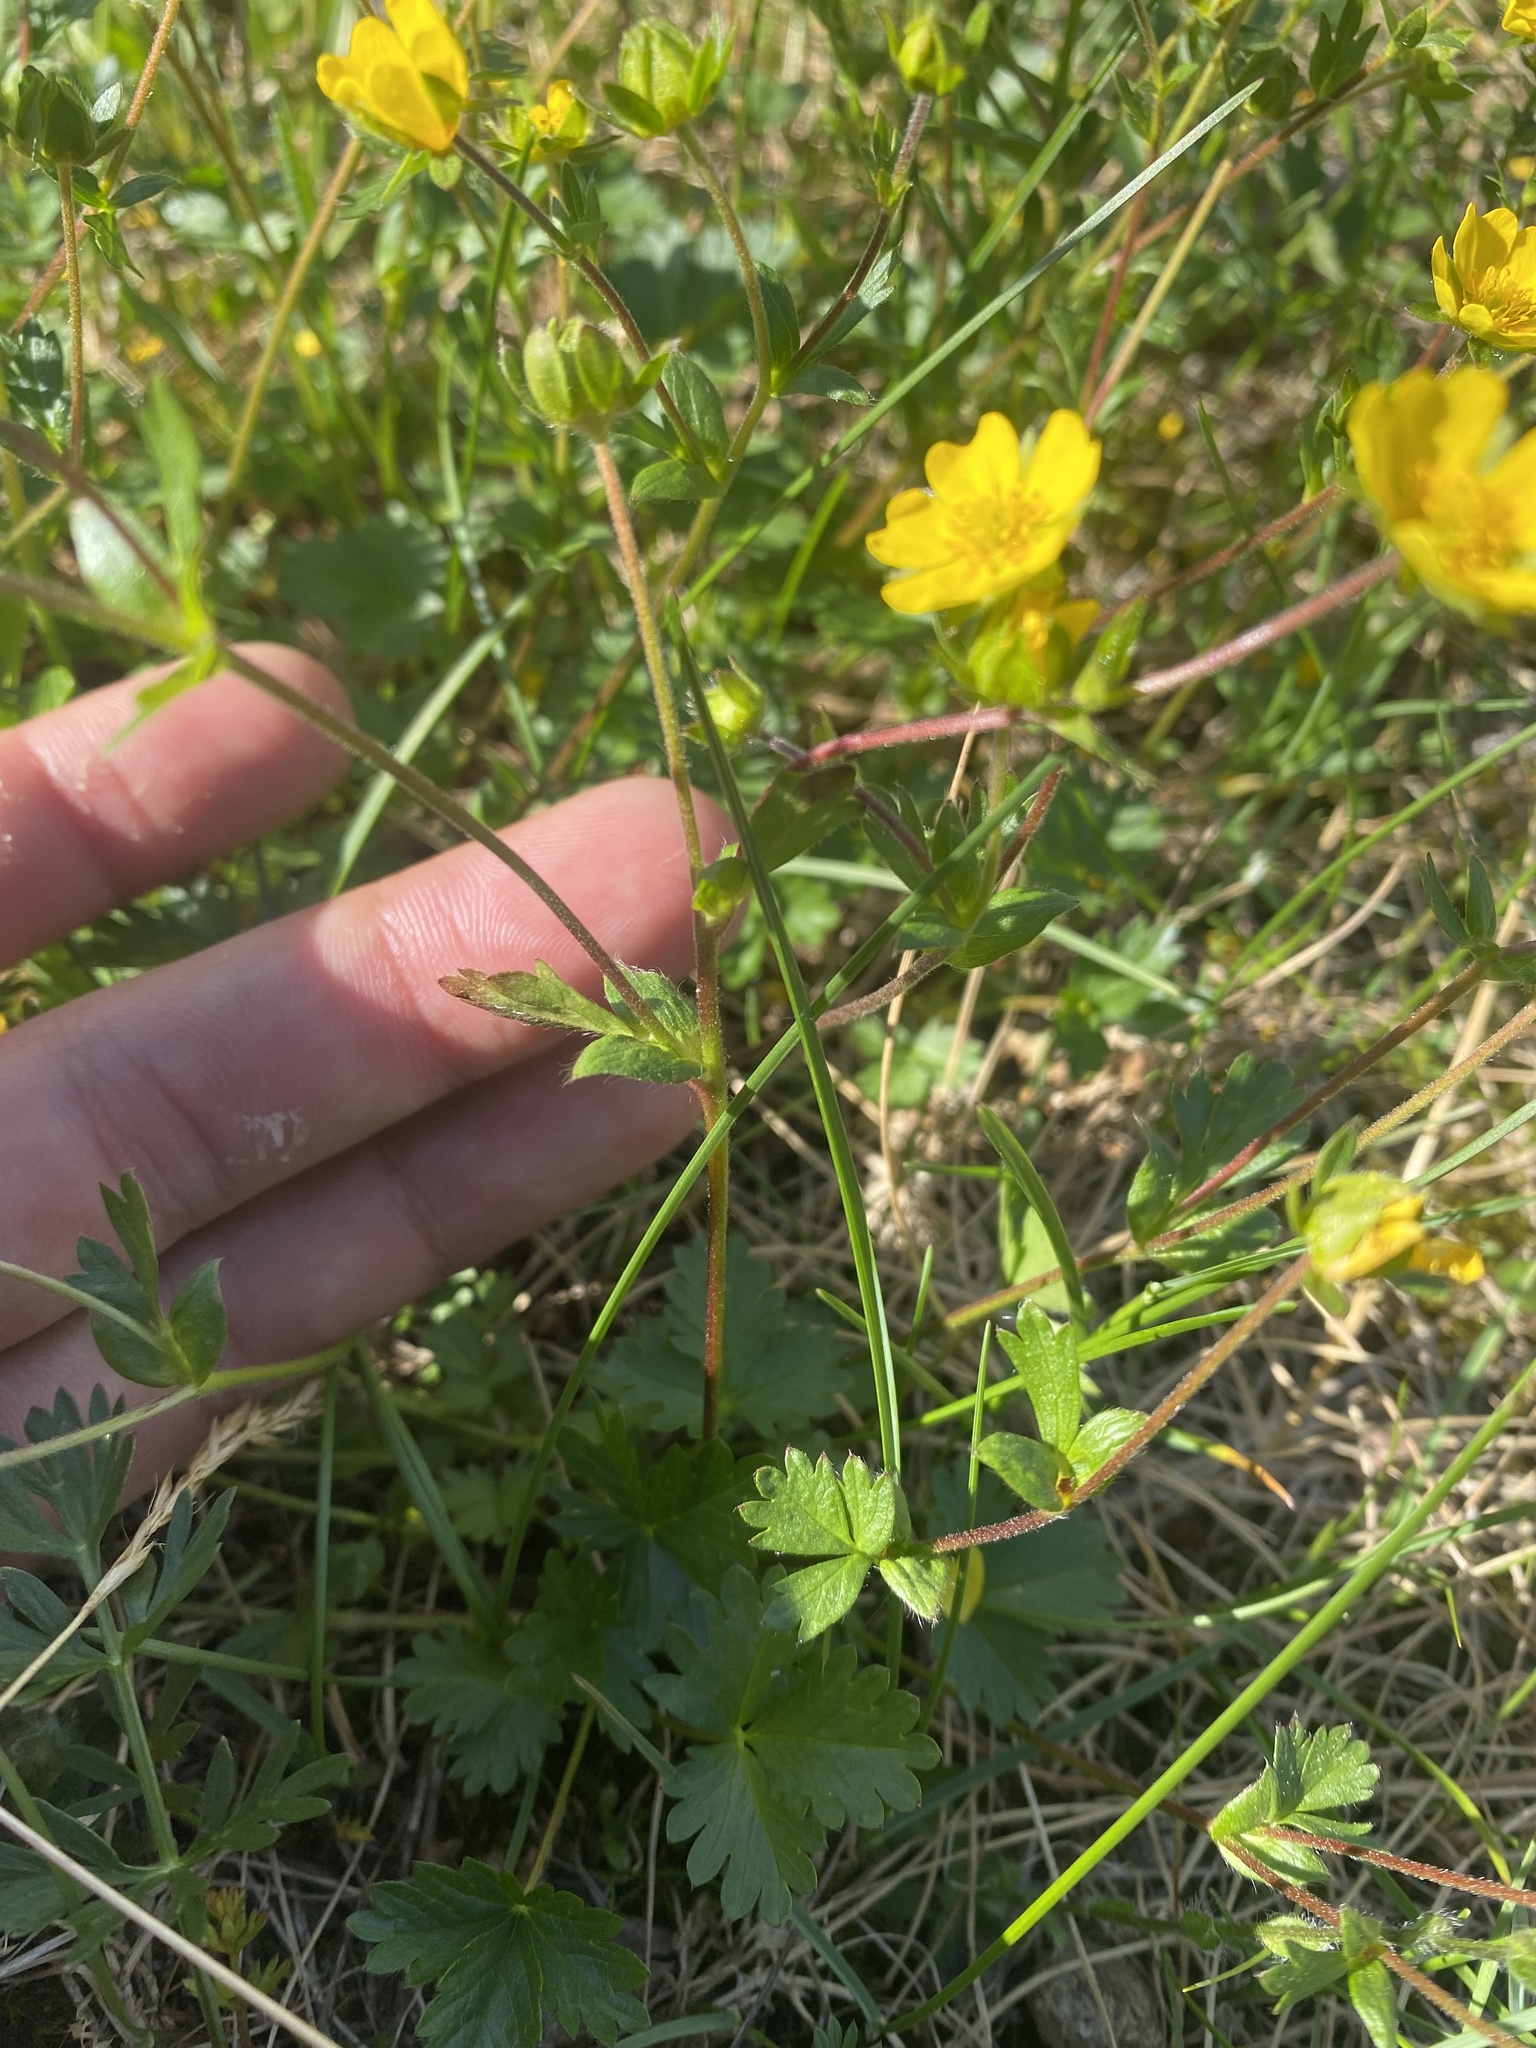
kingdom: Plantae
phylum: Tracheophyta
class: Magnoliopsida
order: Rosales
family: Rosaceae
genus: Potentilla
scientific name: Potentilla
